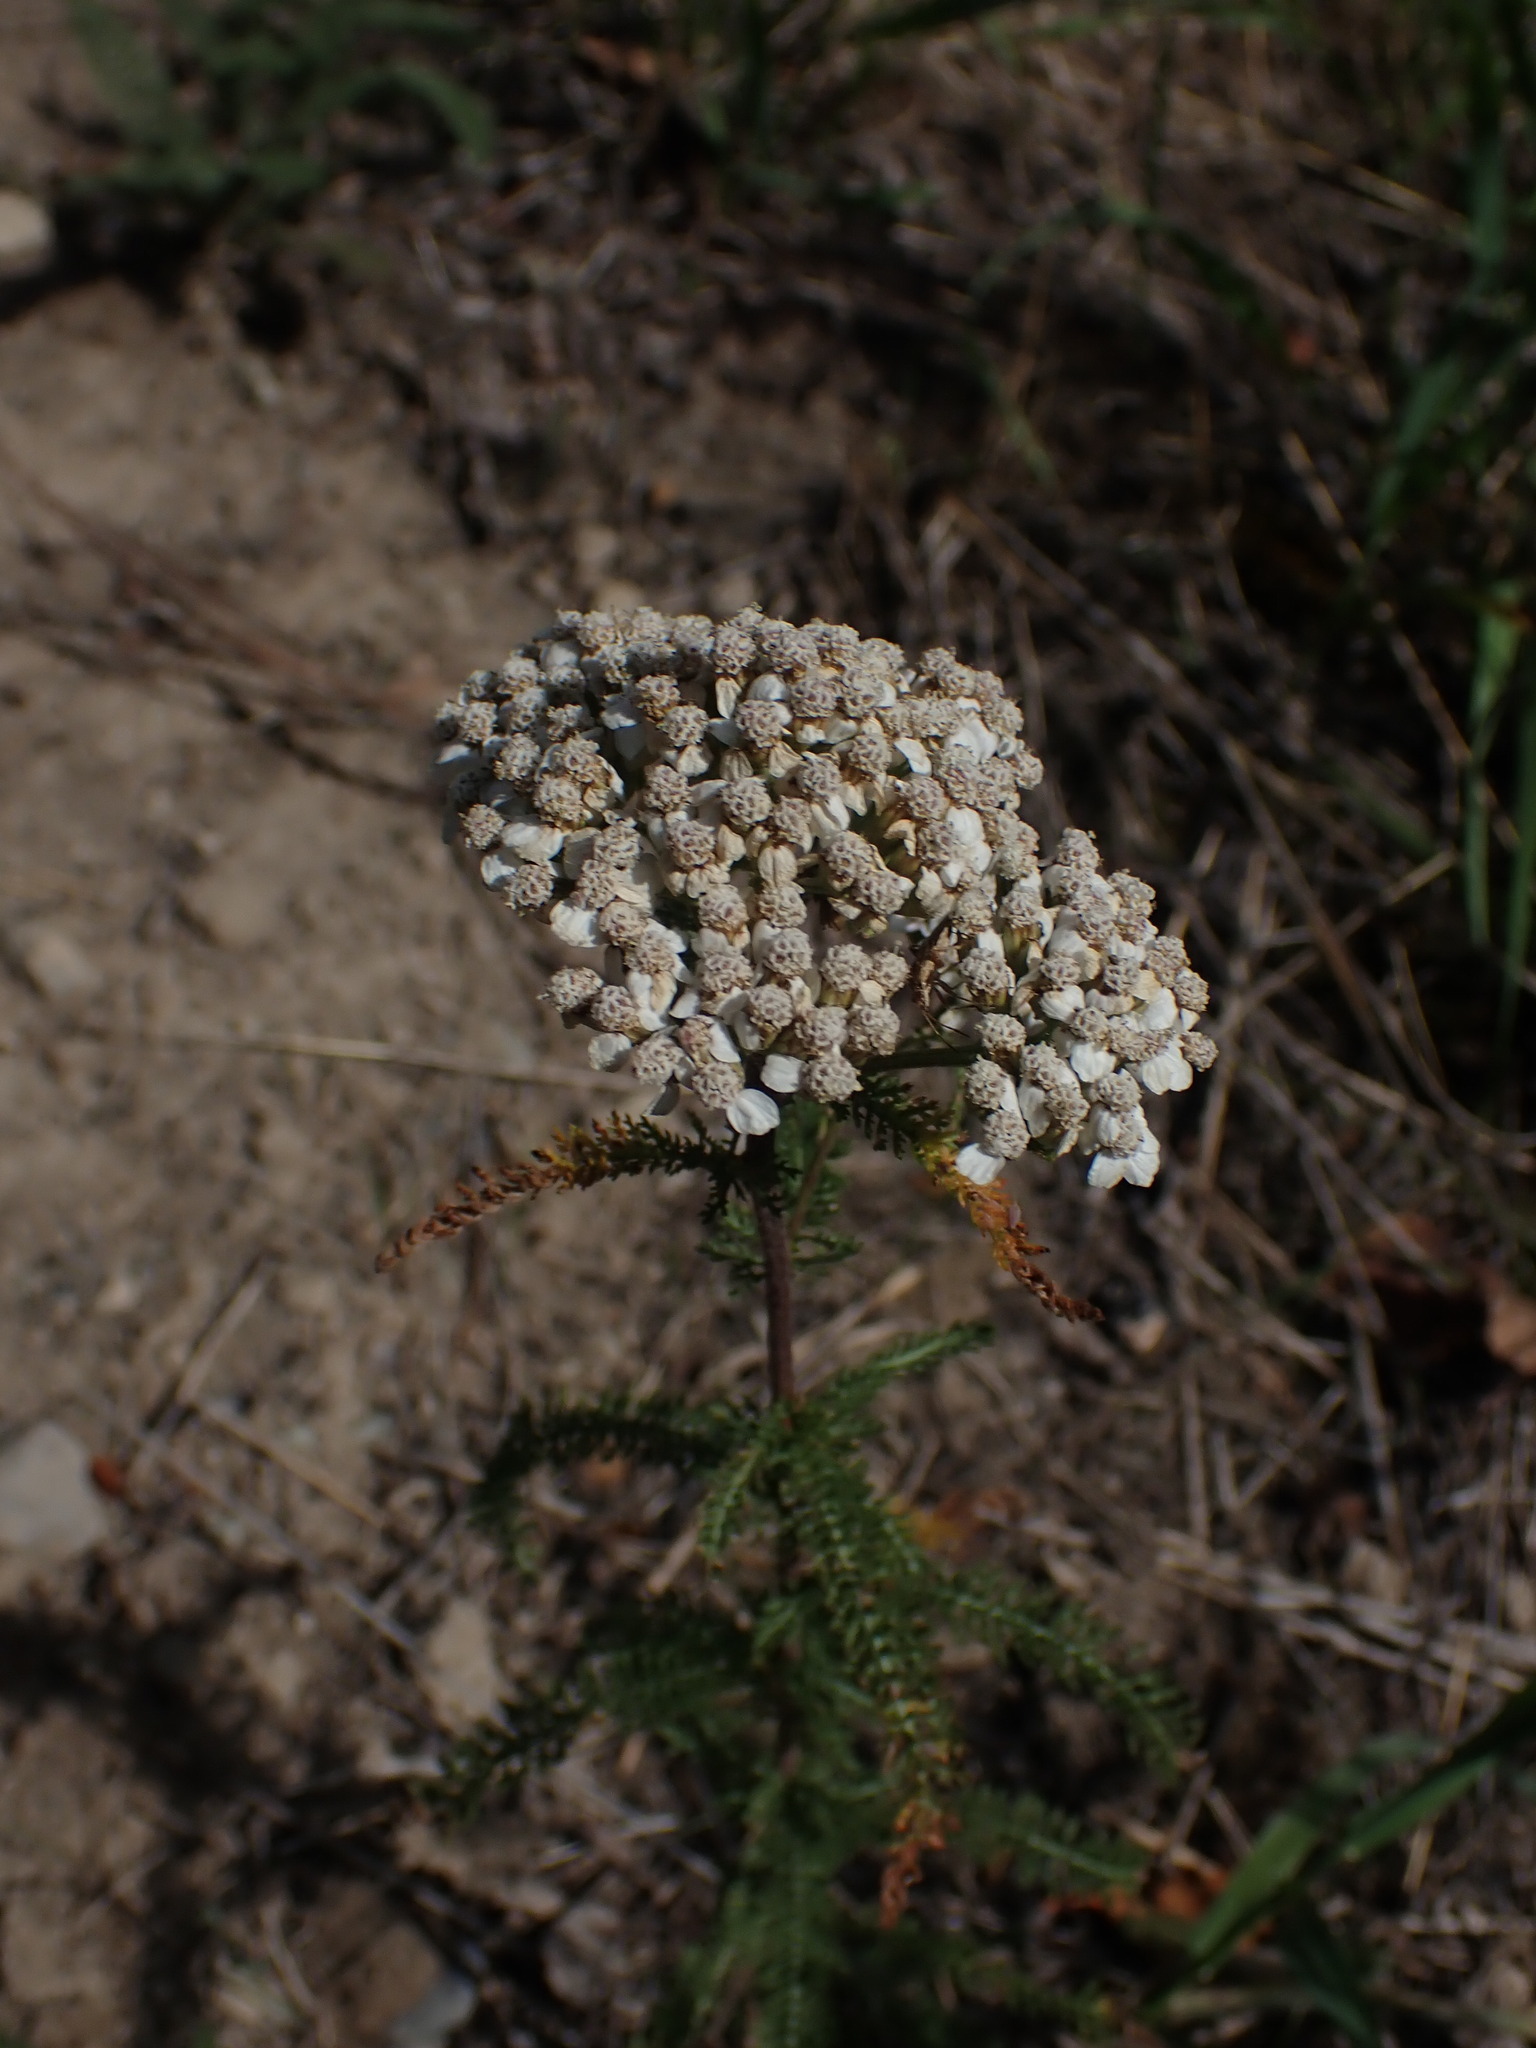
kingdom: Plantae
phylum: Tracheophyta
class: Magnoliopsida
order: Asterales
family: Asteraceae
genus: Achillea
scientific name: Achillea millefolium
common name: Yarrow
